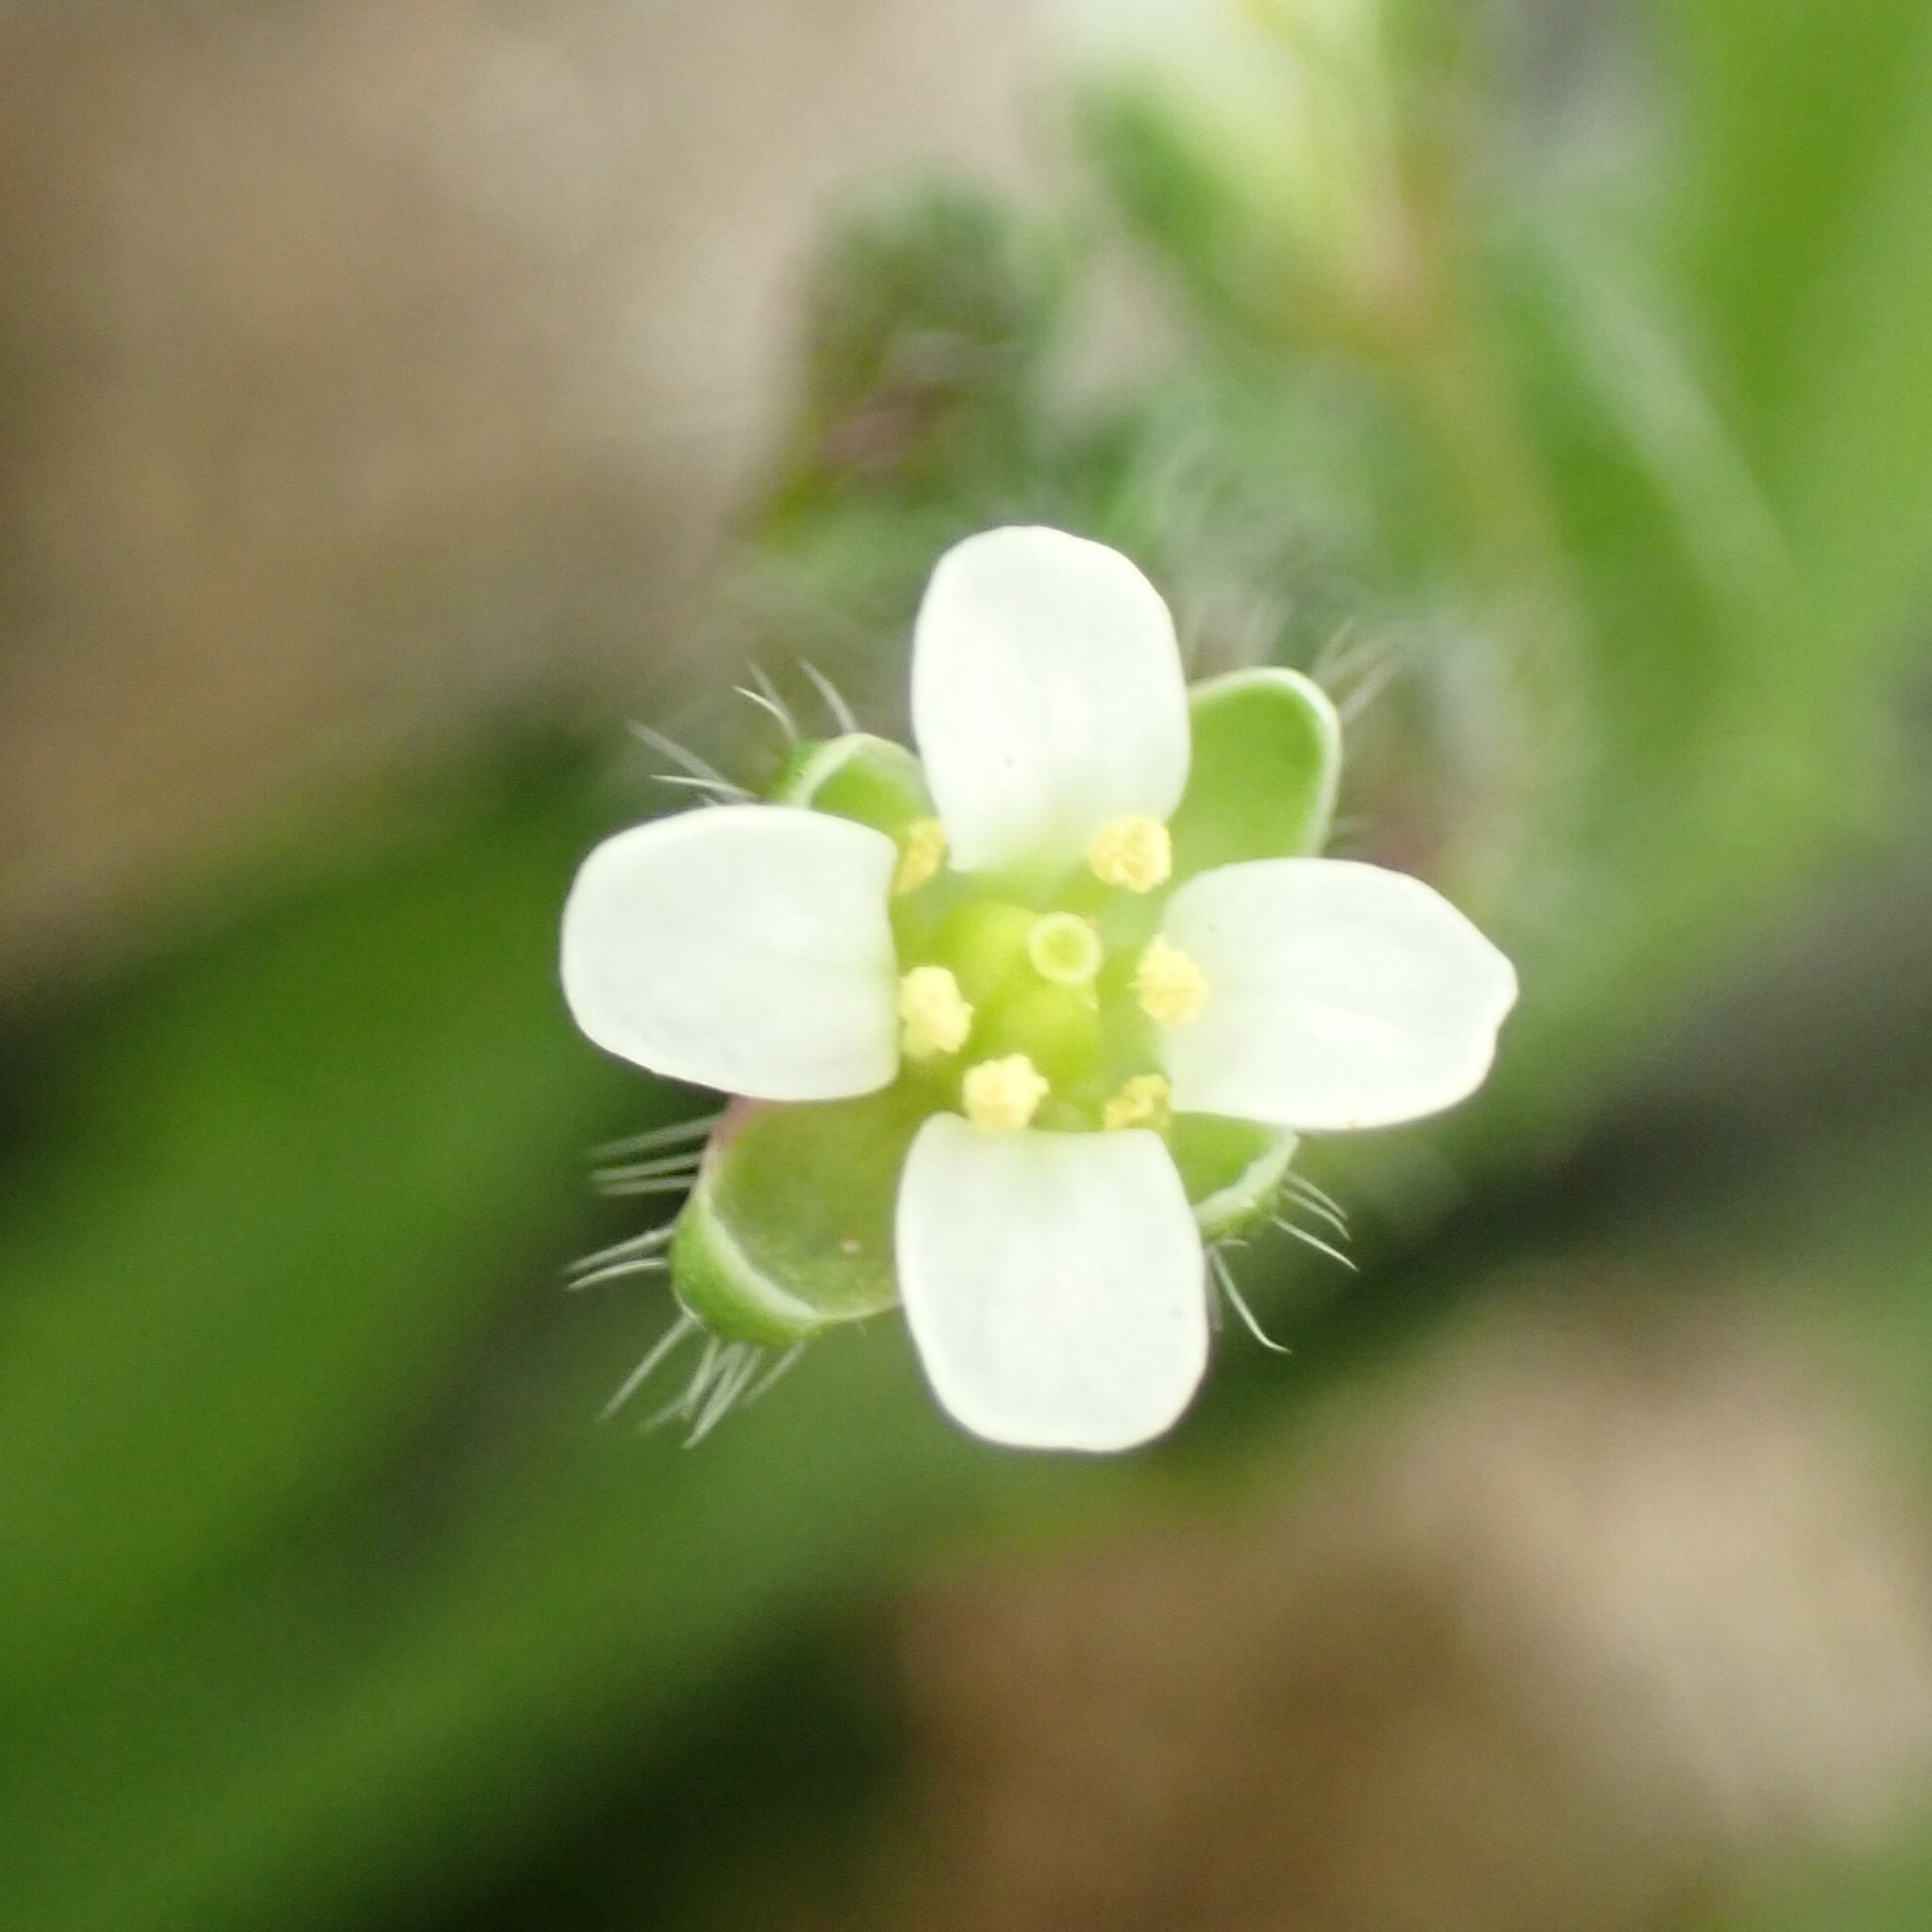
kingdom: Plantae
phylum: Tracheophyta
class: Magnoliopsida
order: Brassicales
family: Brassicaceae
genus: Capsella
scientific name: Capsella bursa-pastoris
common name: Shepherd's purse
